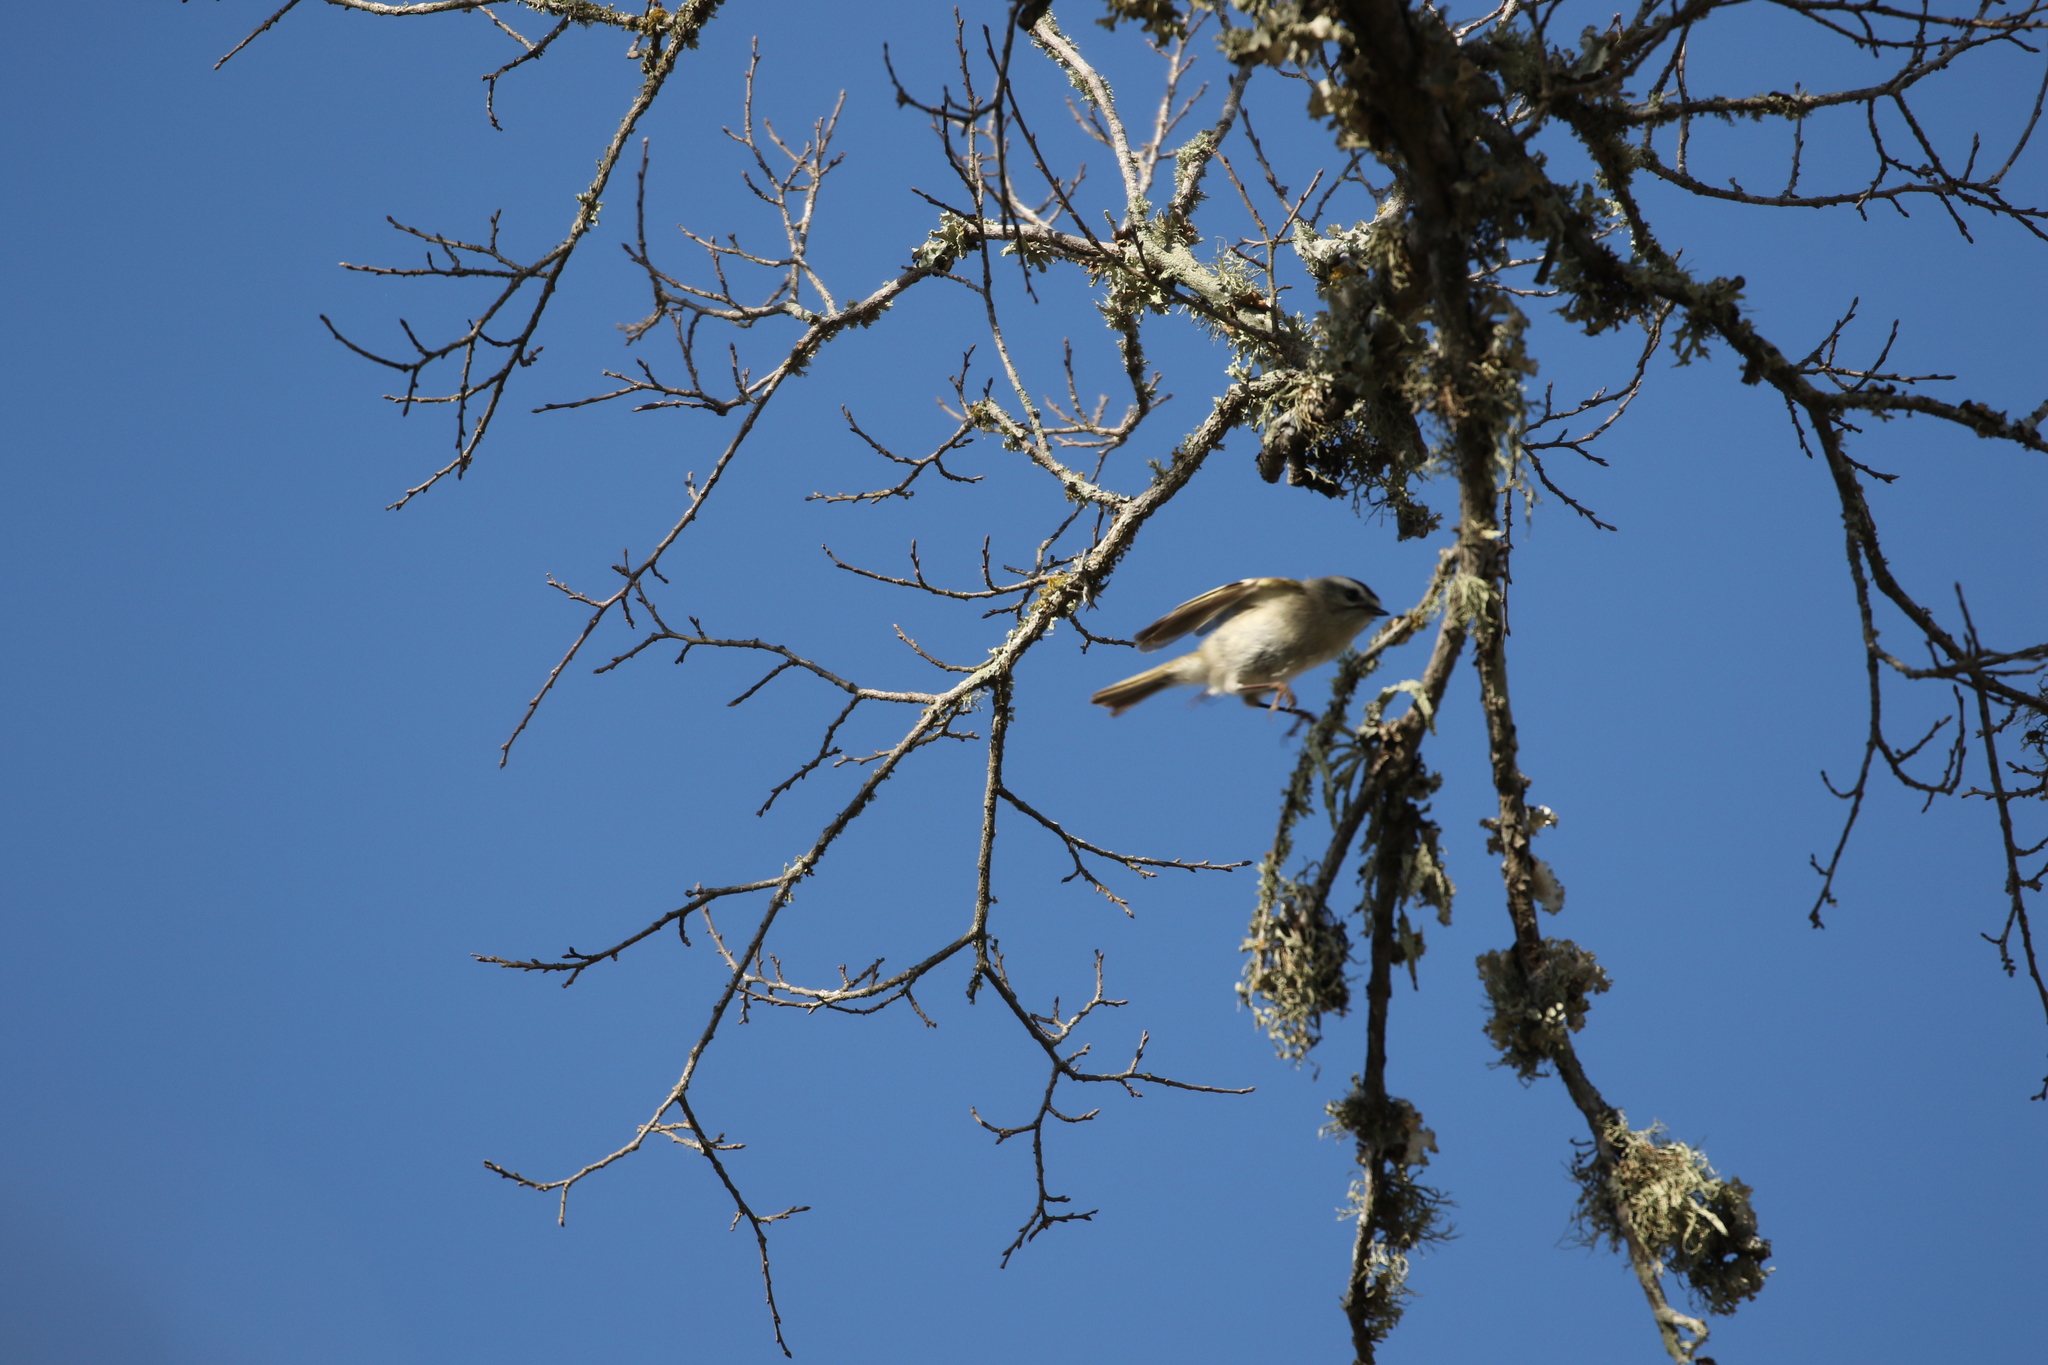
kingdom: Animalia
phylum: Chordata
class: Aves
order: Passeriformes
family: Regulidae
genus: Regulus
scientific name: Regulus satrapa
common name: Golden-crowned kinglet
